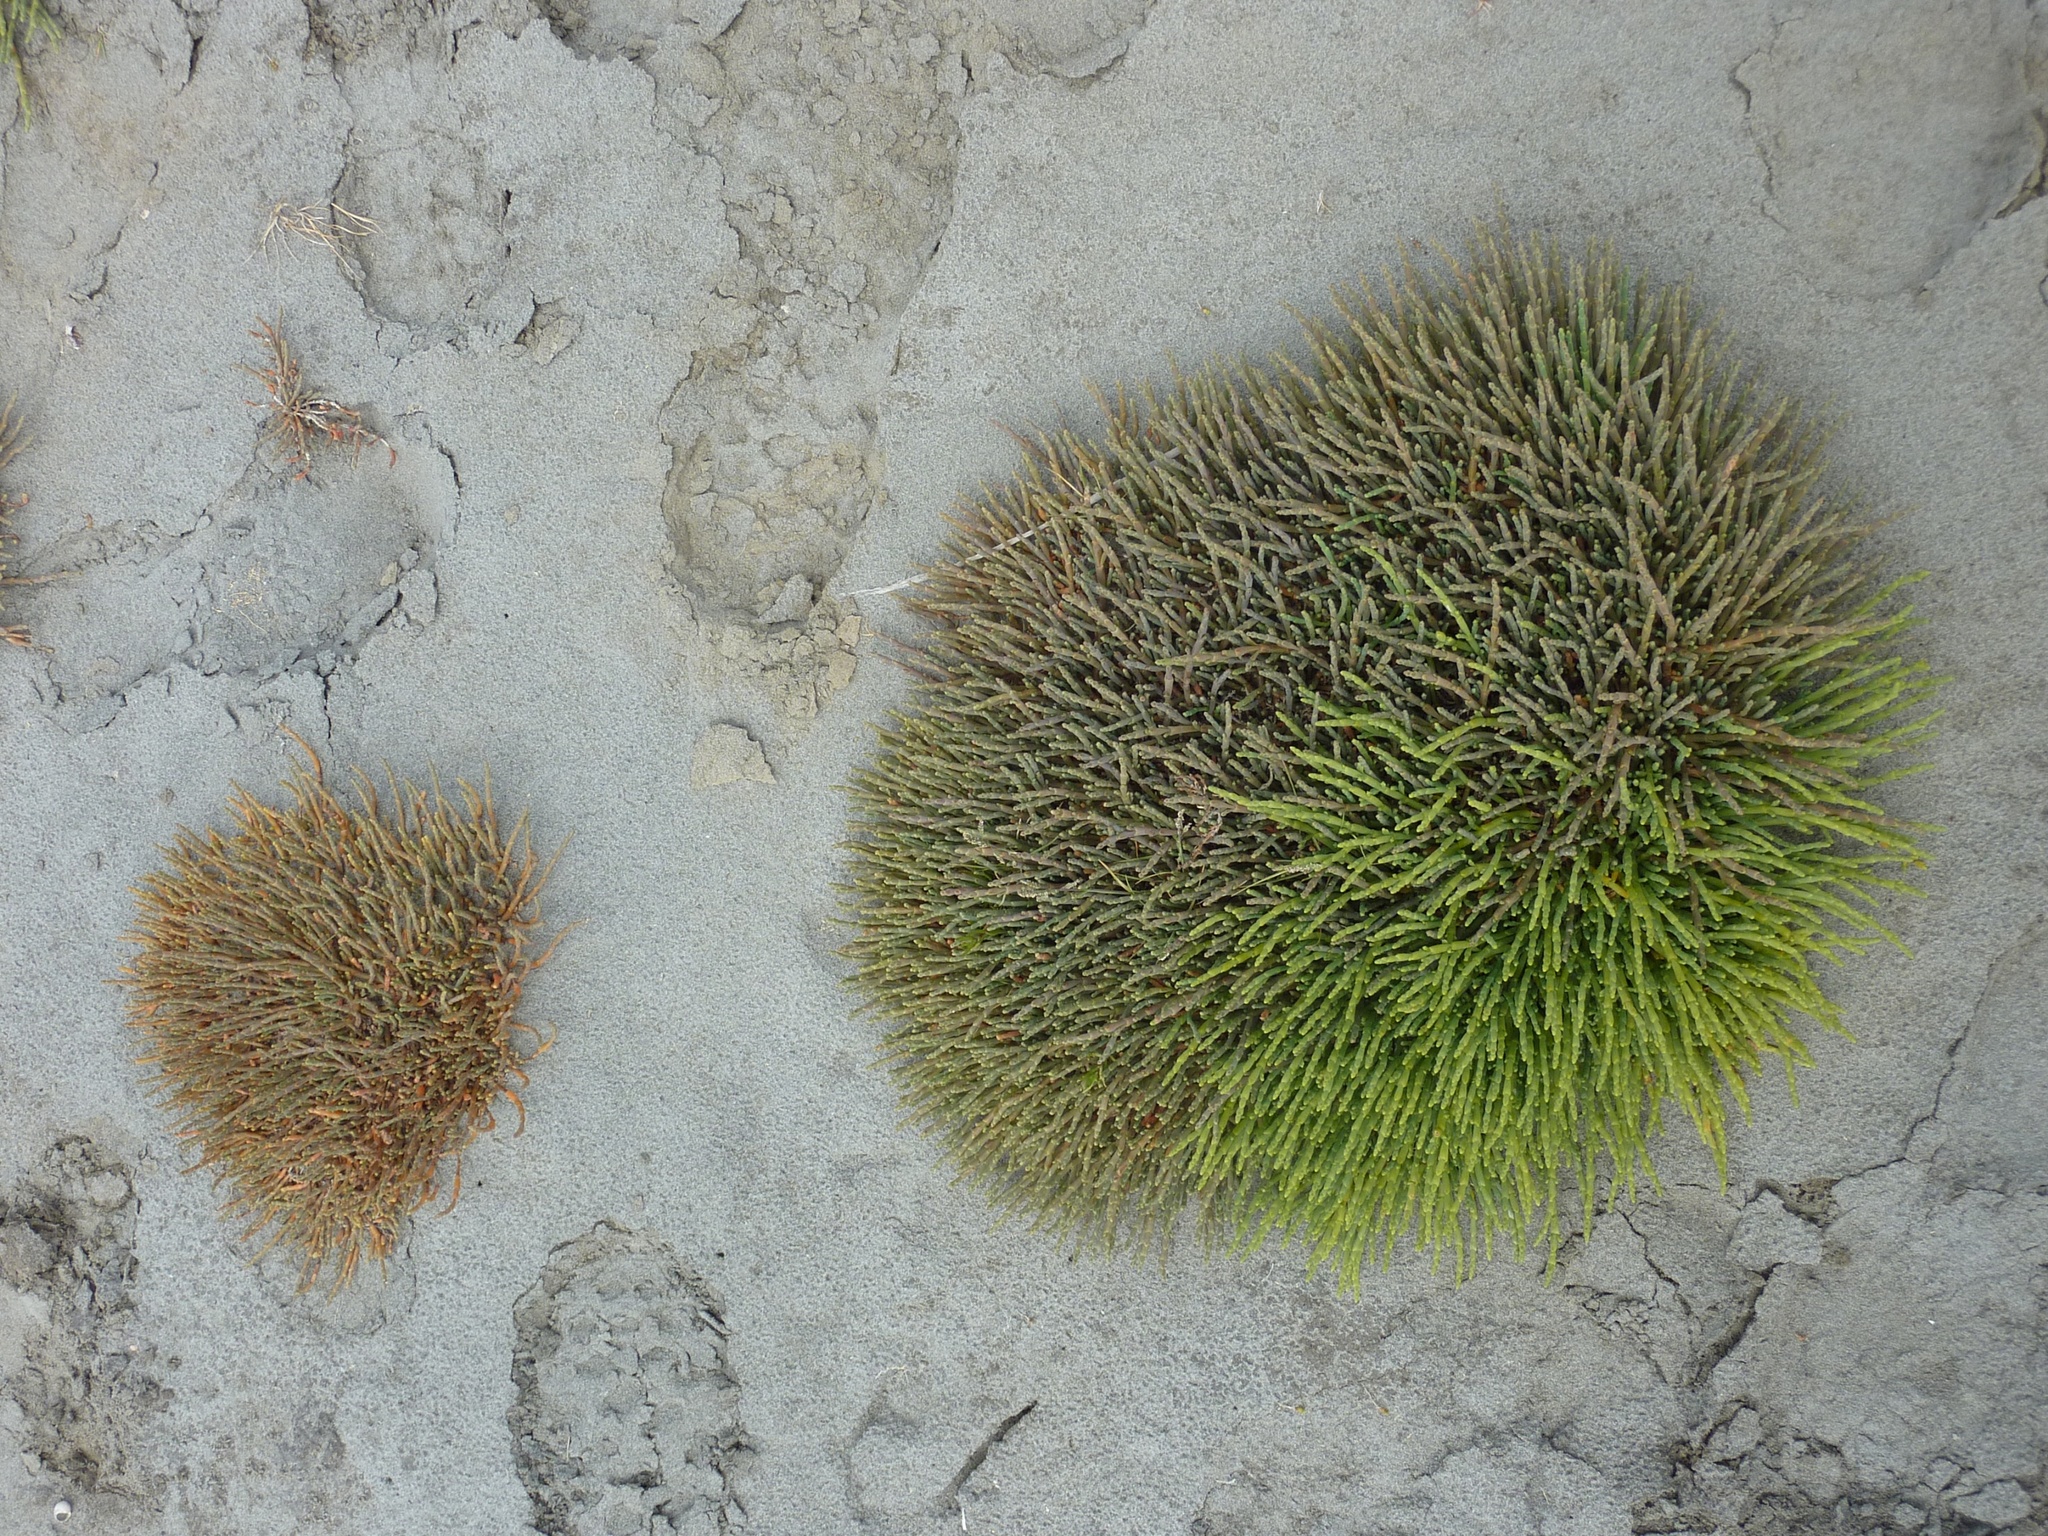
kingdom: Plantae
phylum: Tracheophyta
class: Magnoliopsida
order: Caryophyllales
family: Amaranthaceae
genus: Salicornia
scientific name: Salicornia quinqueflora
